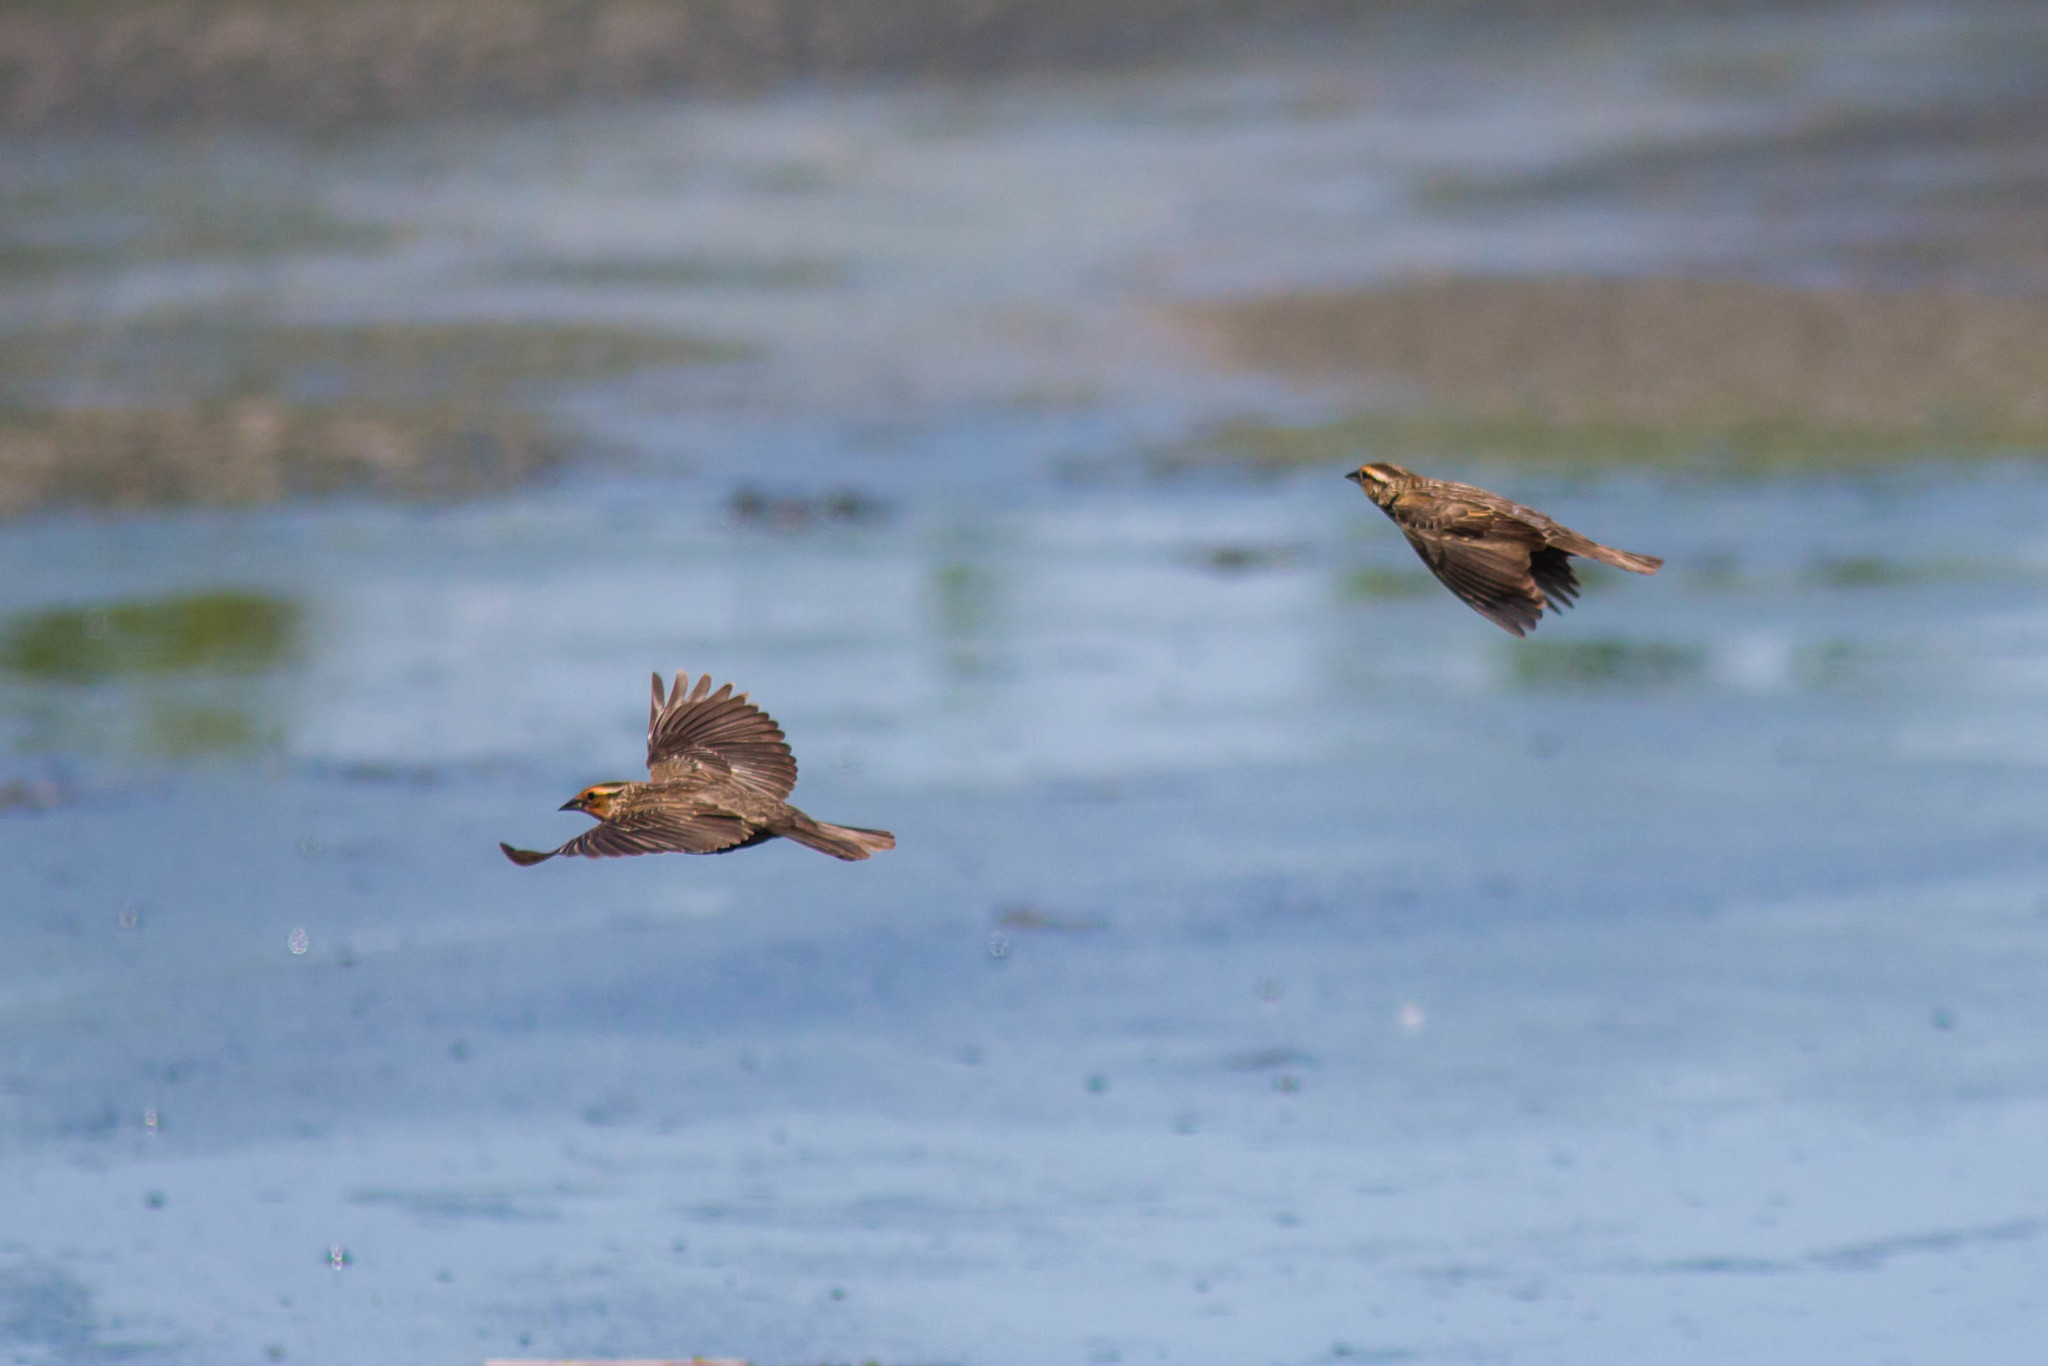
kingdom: Animalia
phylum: Chordata
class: Aves
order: Passeriformes
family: Icteridae
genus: Agelaius
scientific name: Agelaius phoeniceus
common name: Red-winged blackbird
